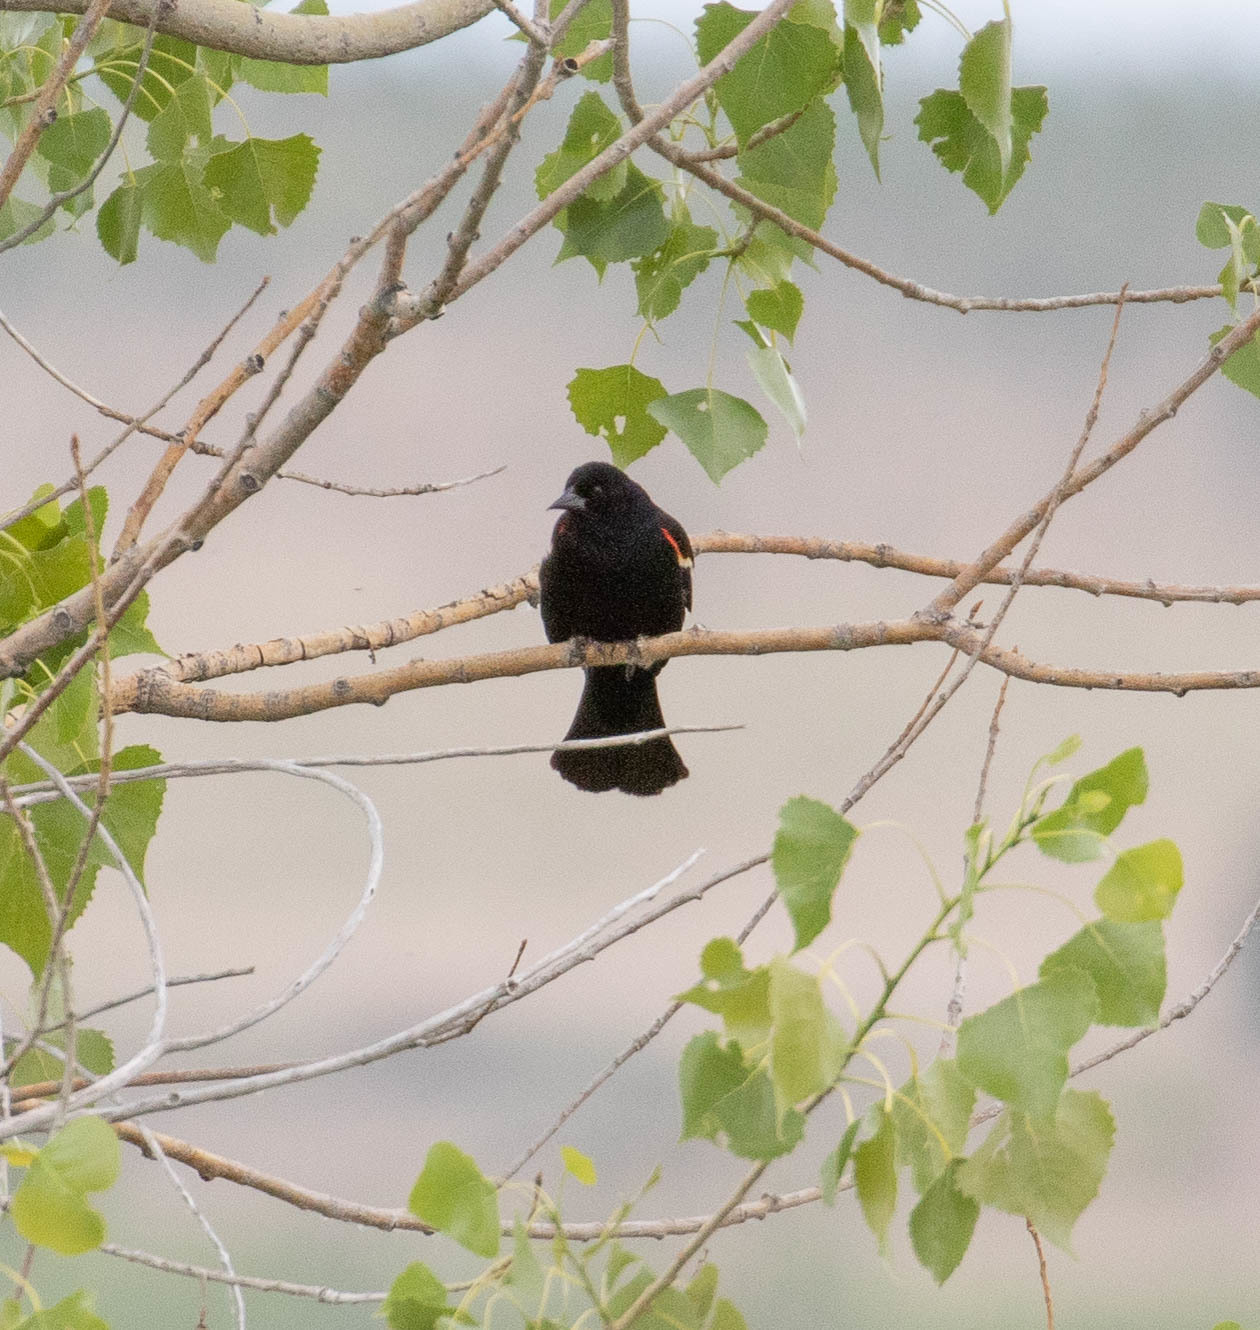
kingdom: Animalia
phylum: Chordata
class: Aves
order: Passeriformes
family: Icteridae
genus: Agelaius
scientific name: Agelaius phoeniceus
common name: Red-winged blackbird
